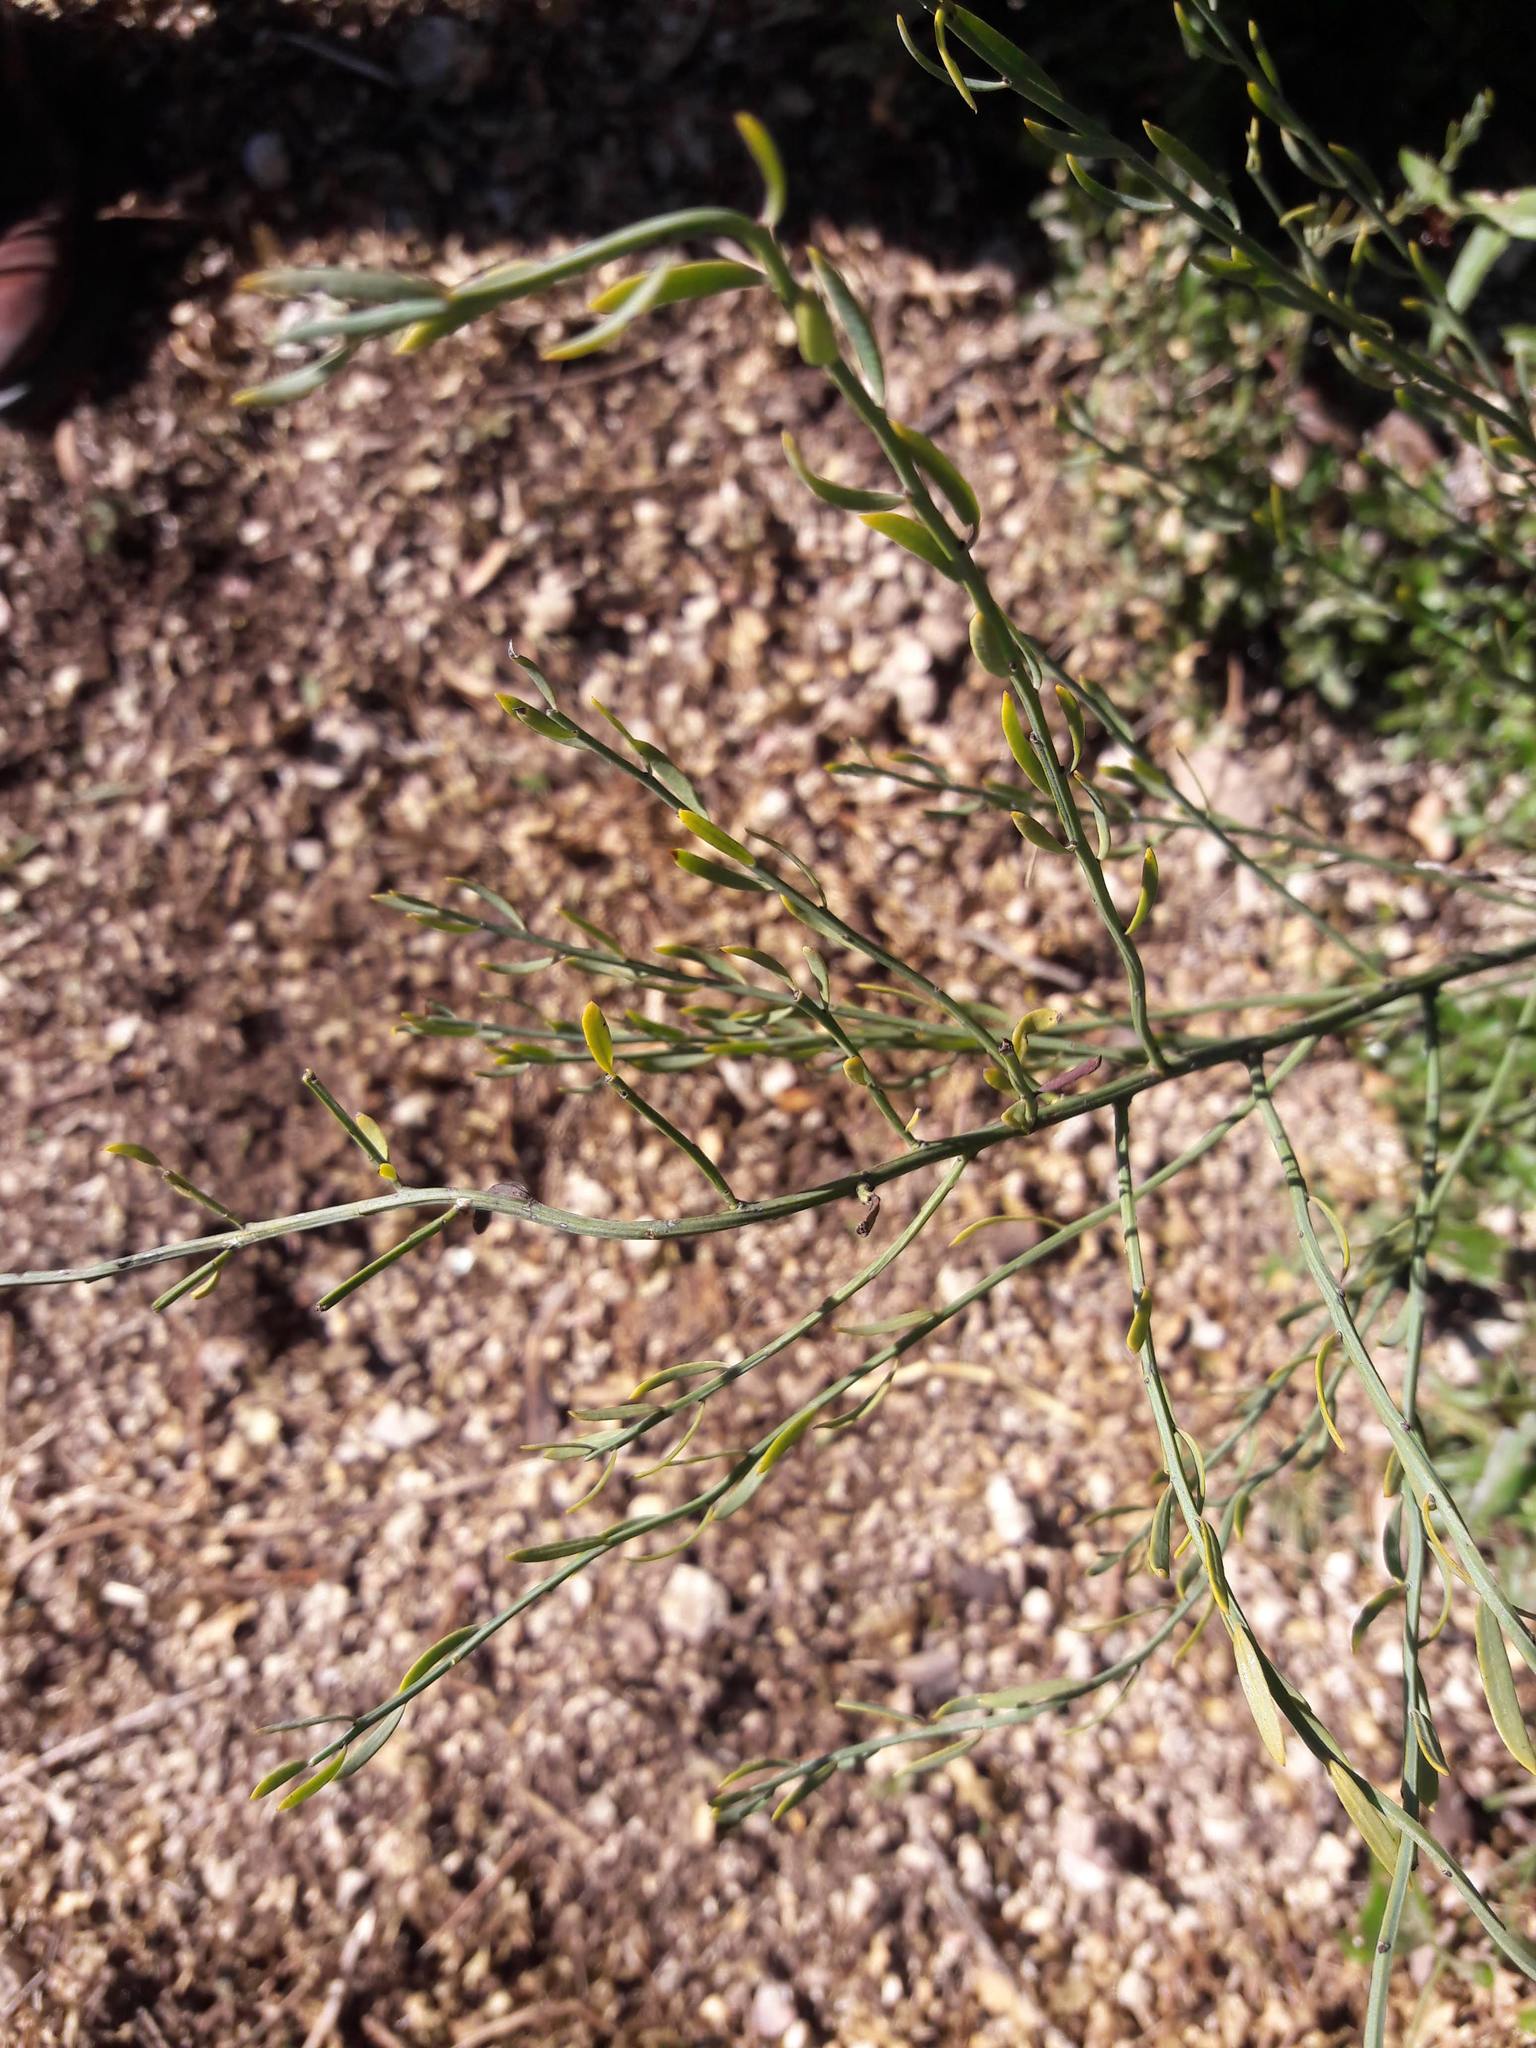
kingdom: Plantae
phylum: Tracheophyta
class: Magnoliopsida
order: Santalales
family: Santalaceae
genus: Osyris
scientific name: Osyris alba
